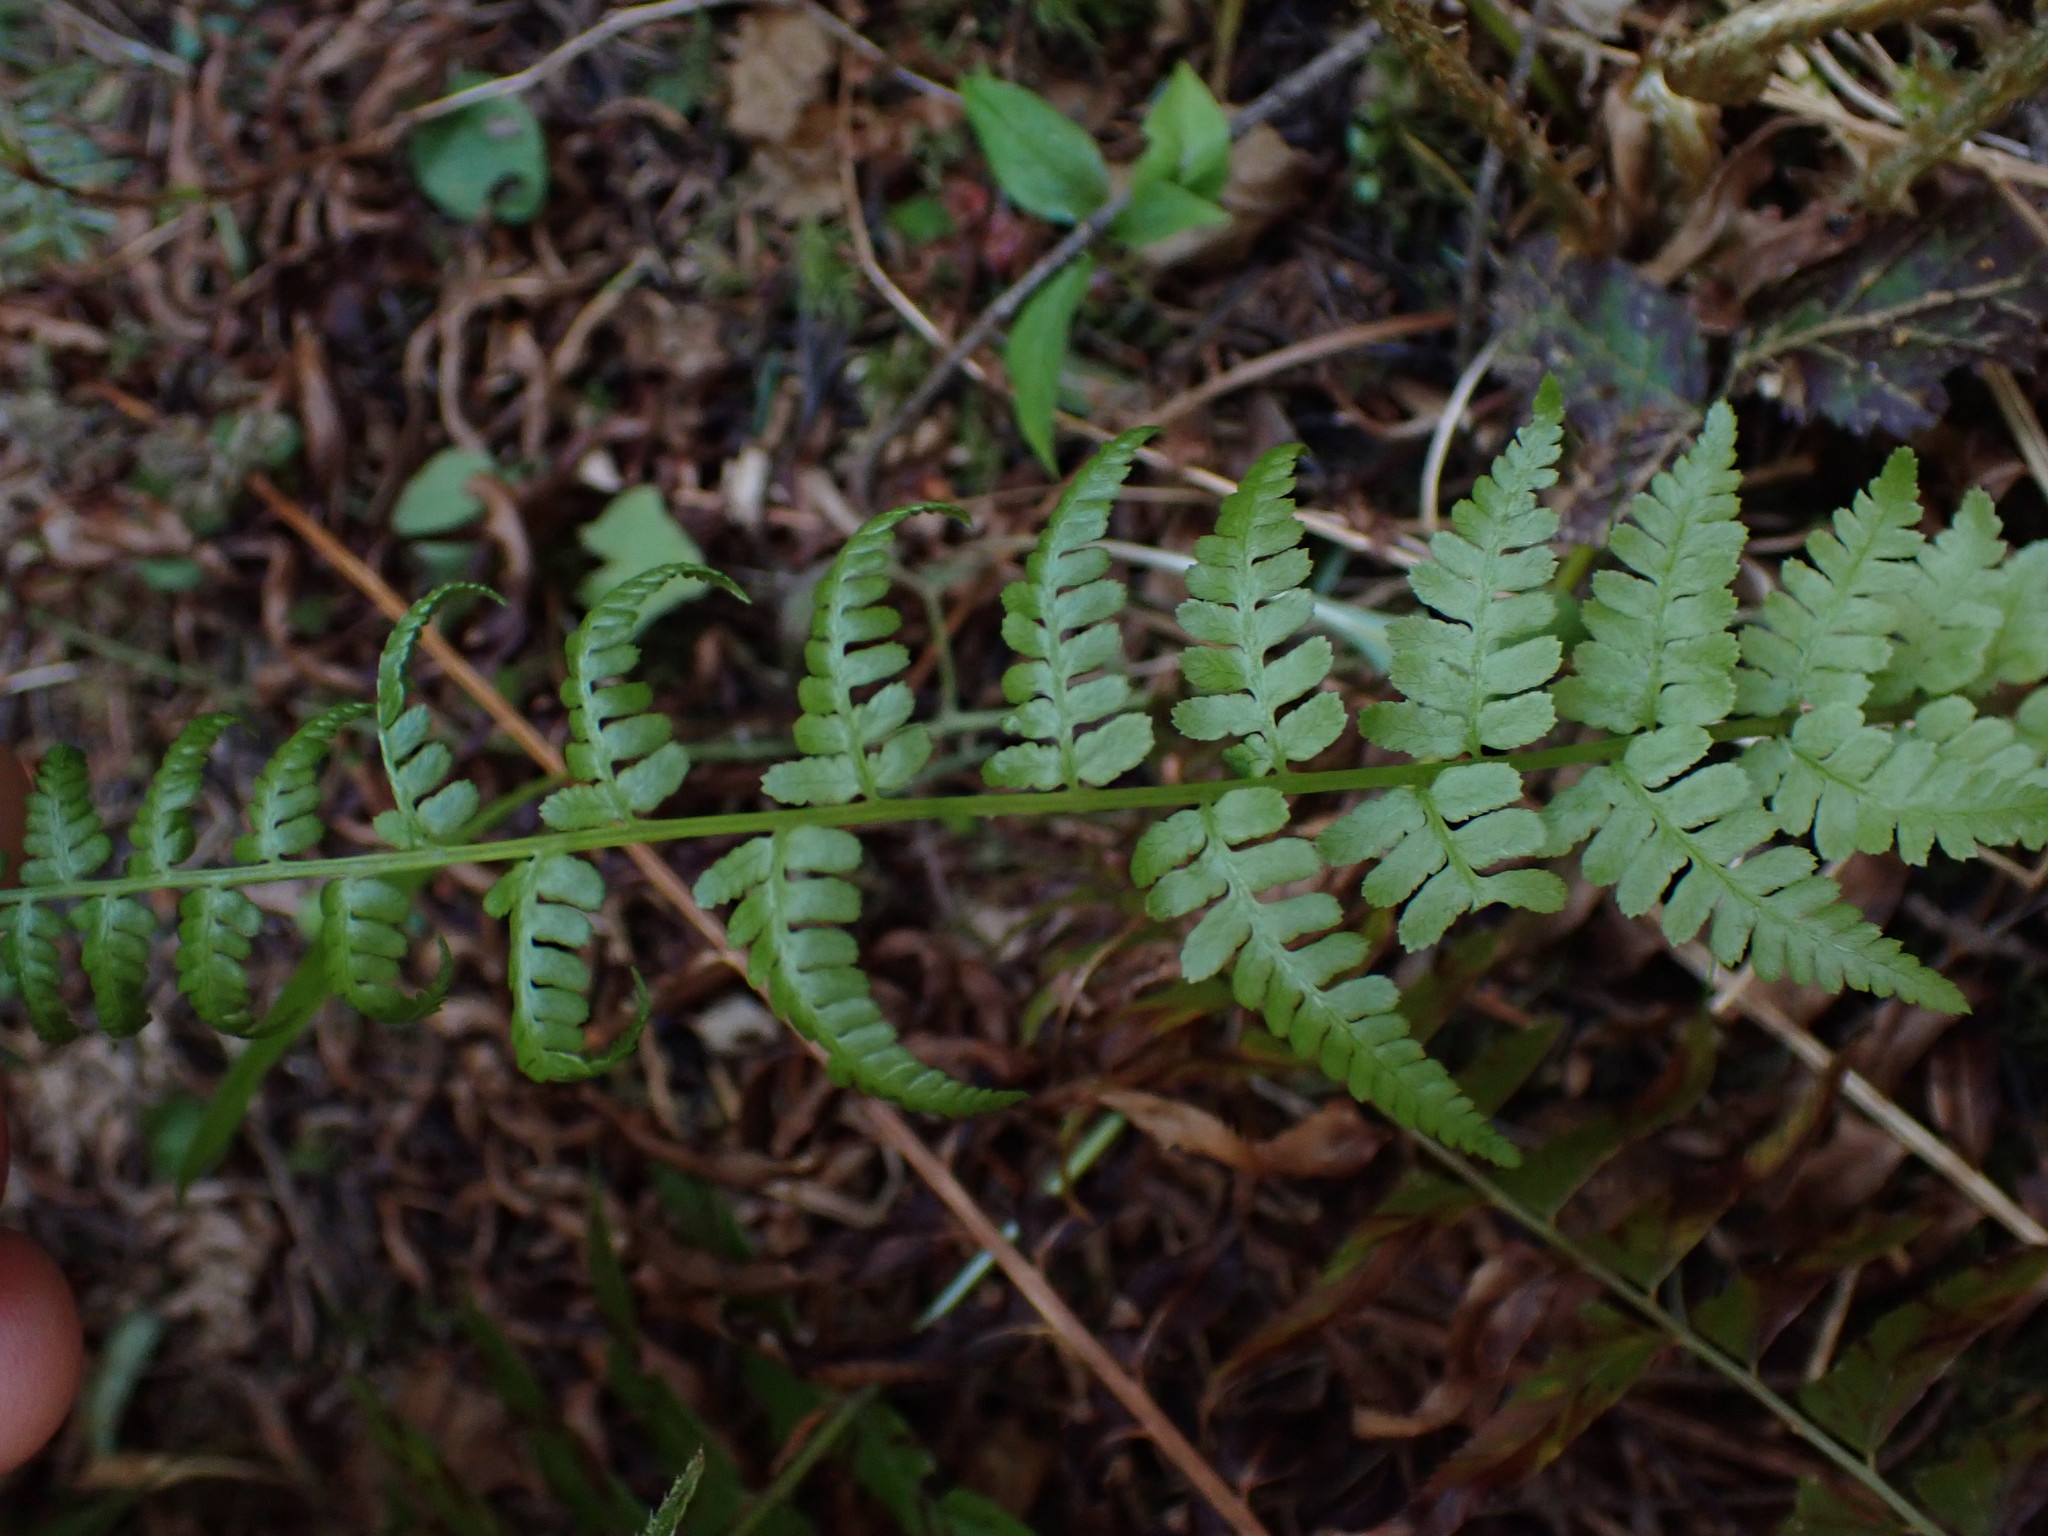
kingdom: Plantae
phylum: Tracheophyta
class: Polypodiopsida
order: Polypodiales
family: Athyriaceae
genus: Athyrium
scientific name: Athyrium filix-femina
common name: Lady fern
